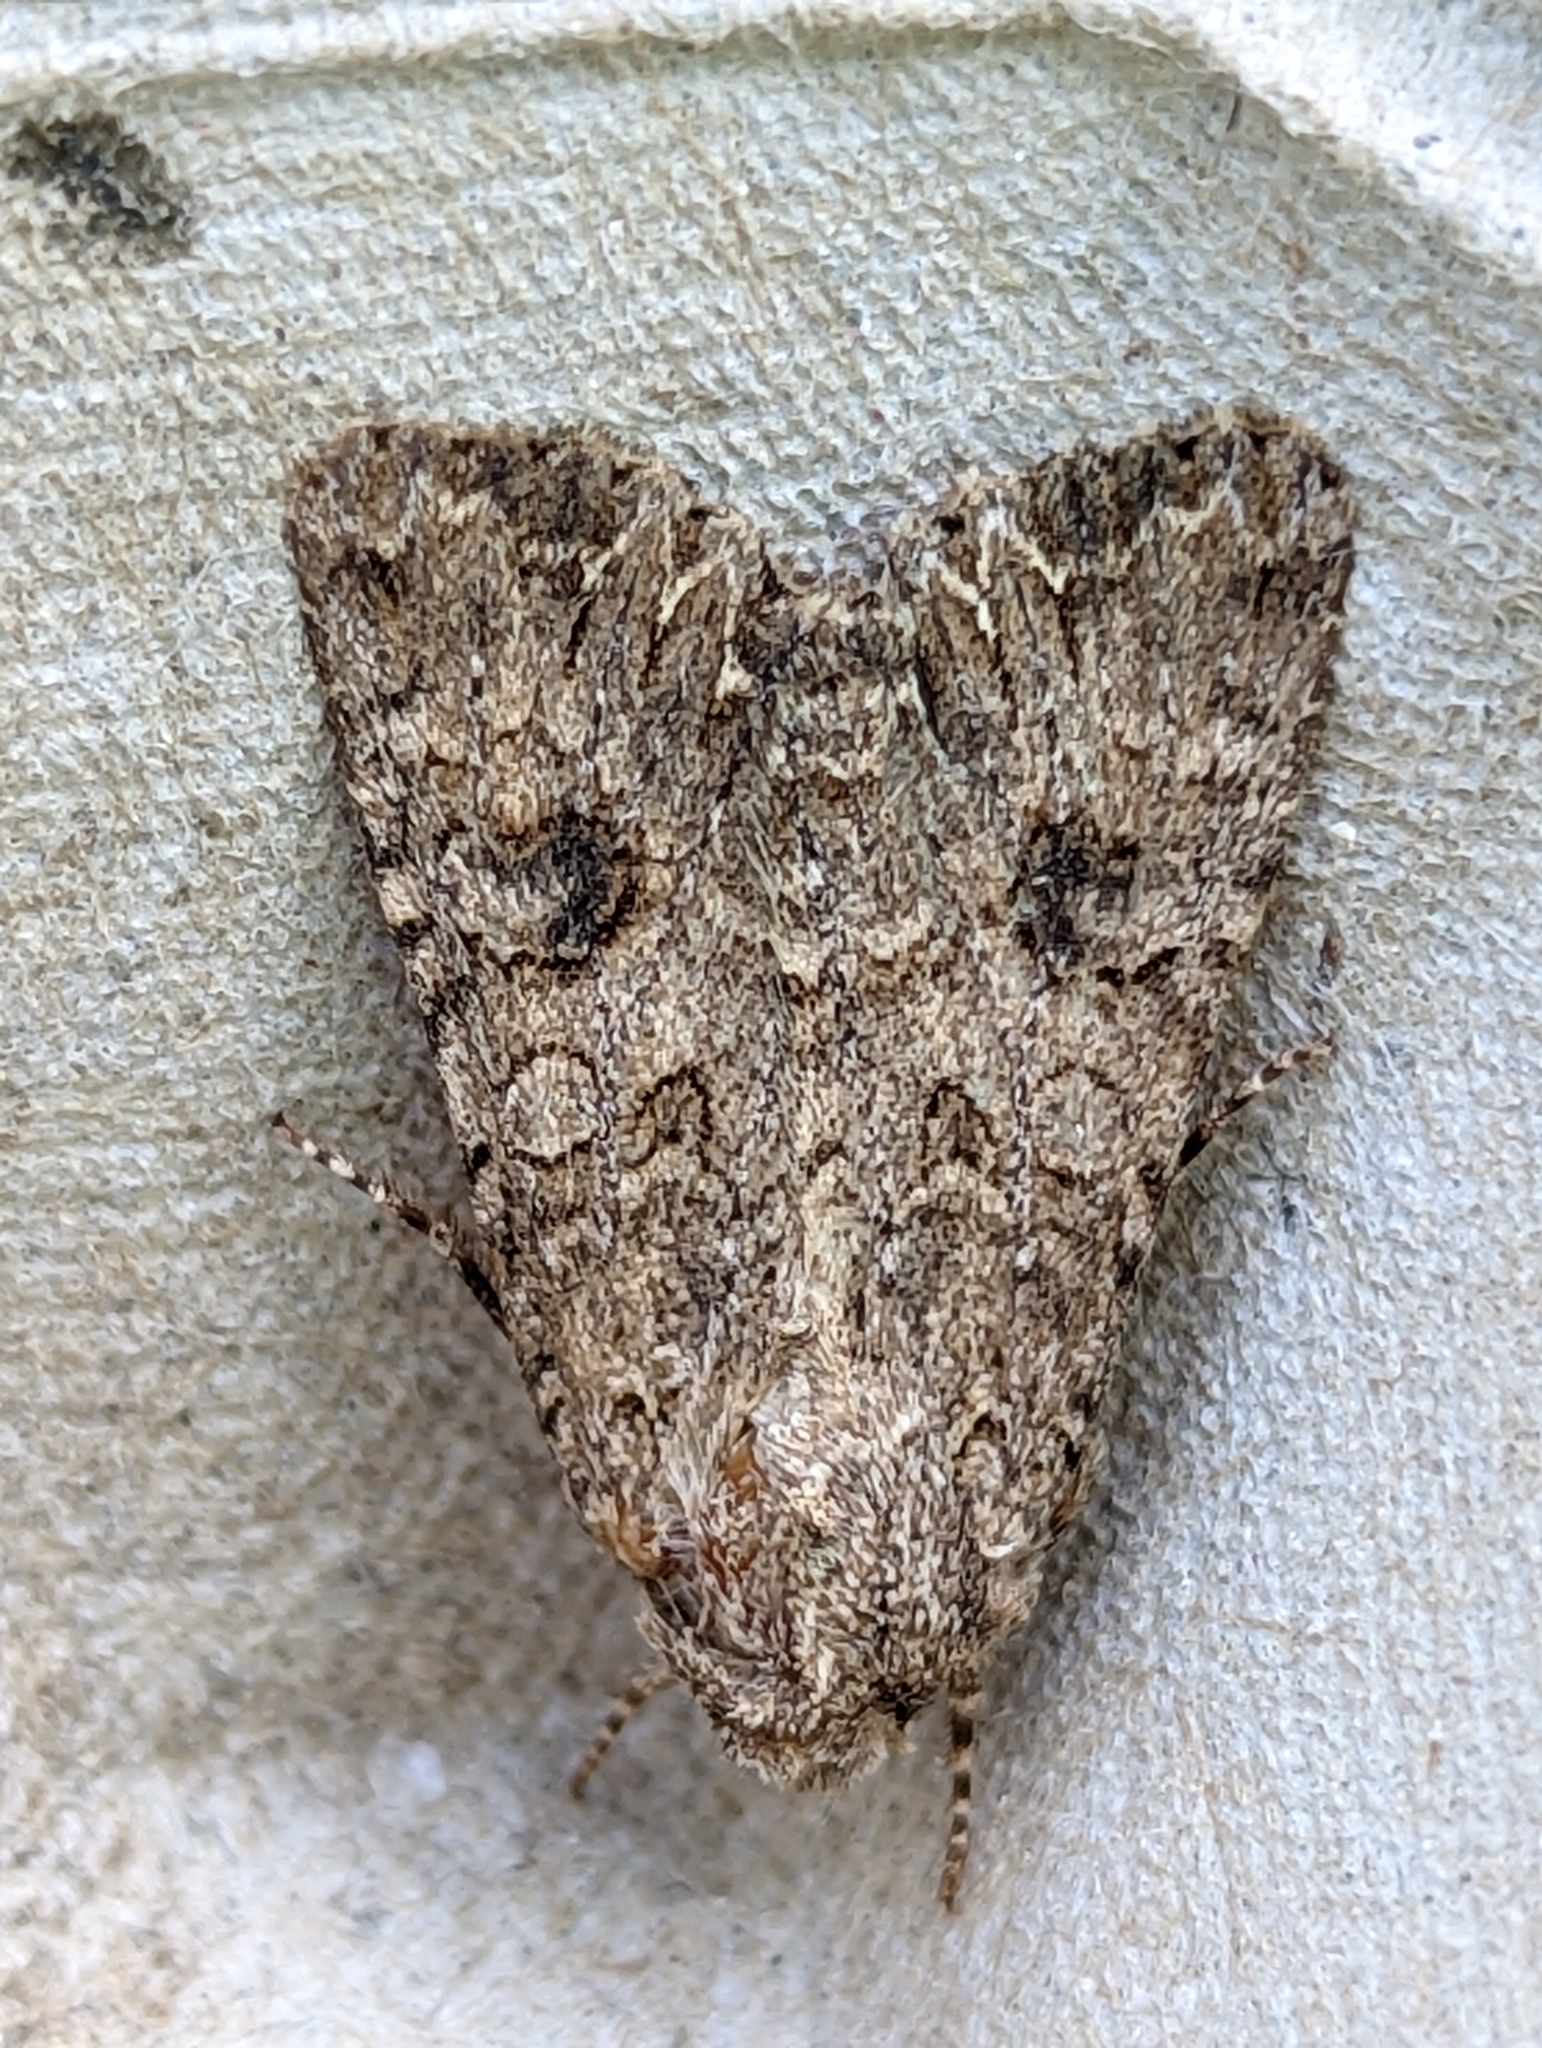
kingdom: Animalia
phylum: Arthropoda
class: Insecta
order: Lepidoptera
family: Noctuidae
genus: Anarta
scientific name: Anarta trifolii
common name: Clover cutworm moth
